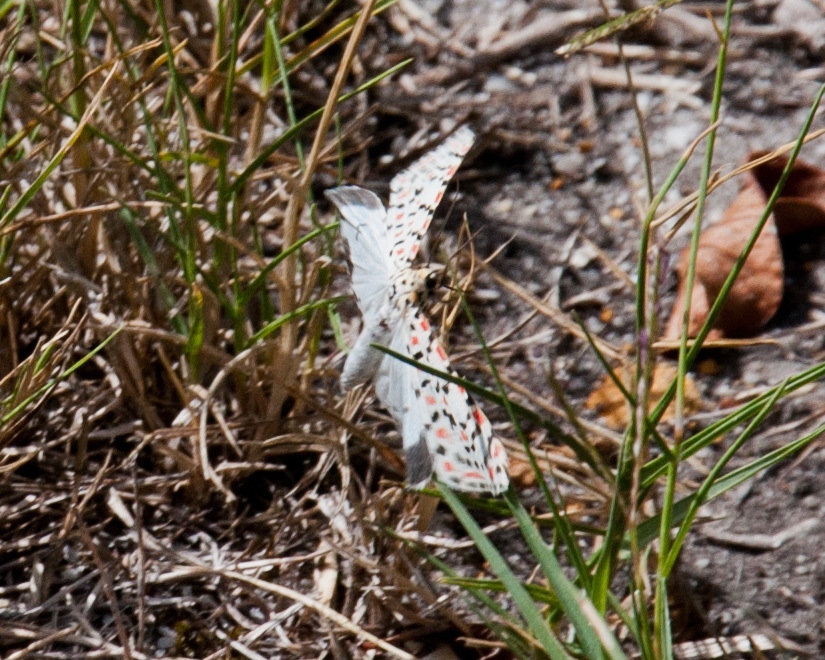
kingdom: Animalia
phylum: Arthropoda
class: Insecta
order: Lepidoptera
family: Erebidae
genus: Utetheisa
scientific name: Utetheisa pulchella
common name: Crimson speckled
